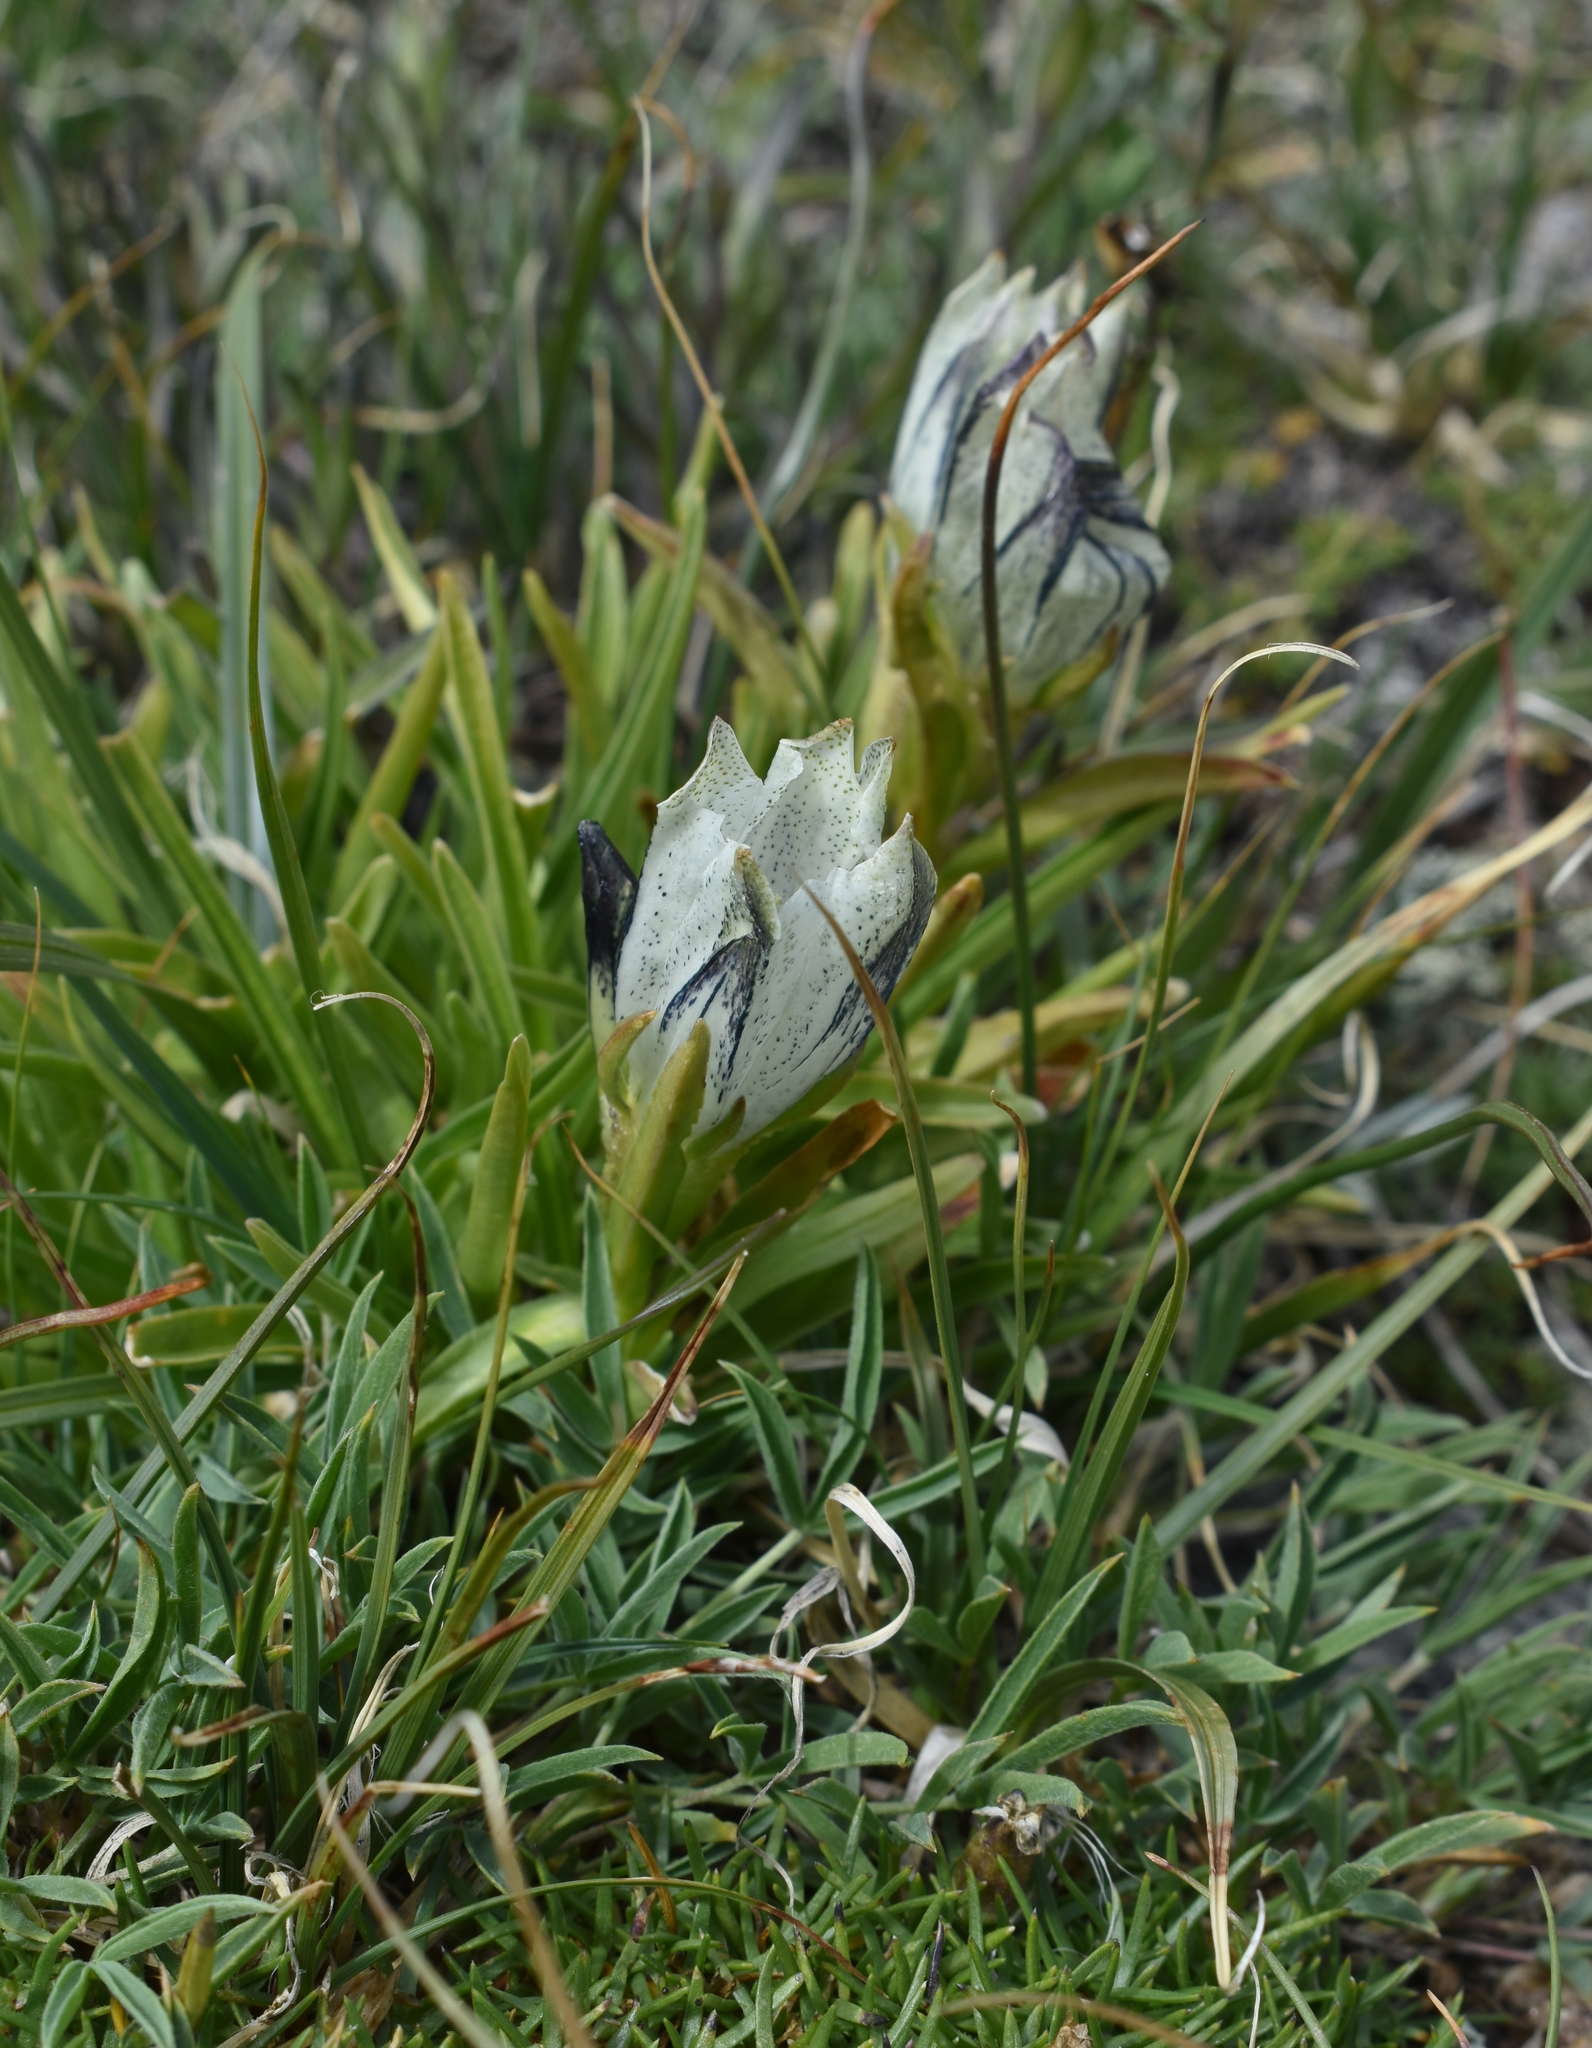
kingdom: Plantae
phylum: Tracheophyta
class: Magnoliopsida
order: Gentianales
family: Gentianaceae
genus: Gentiana
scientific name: Gentiana algida
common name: Arctic gentian
